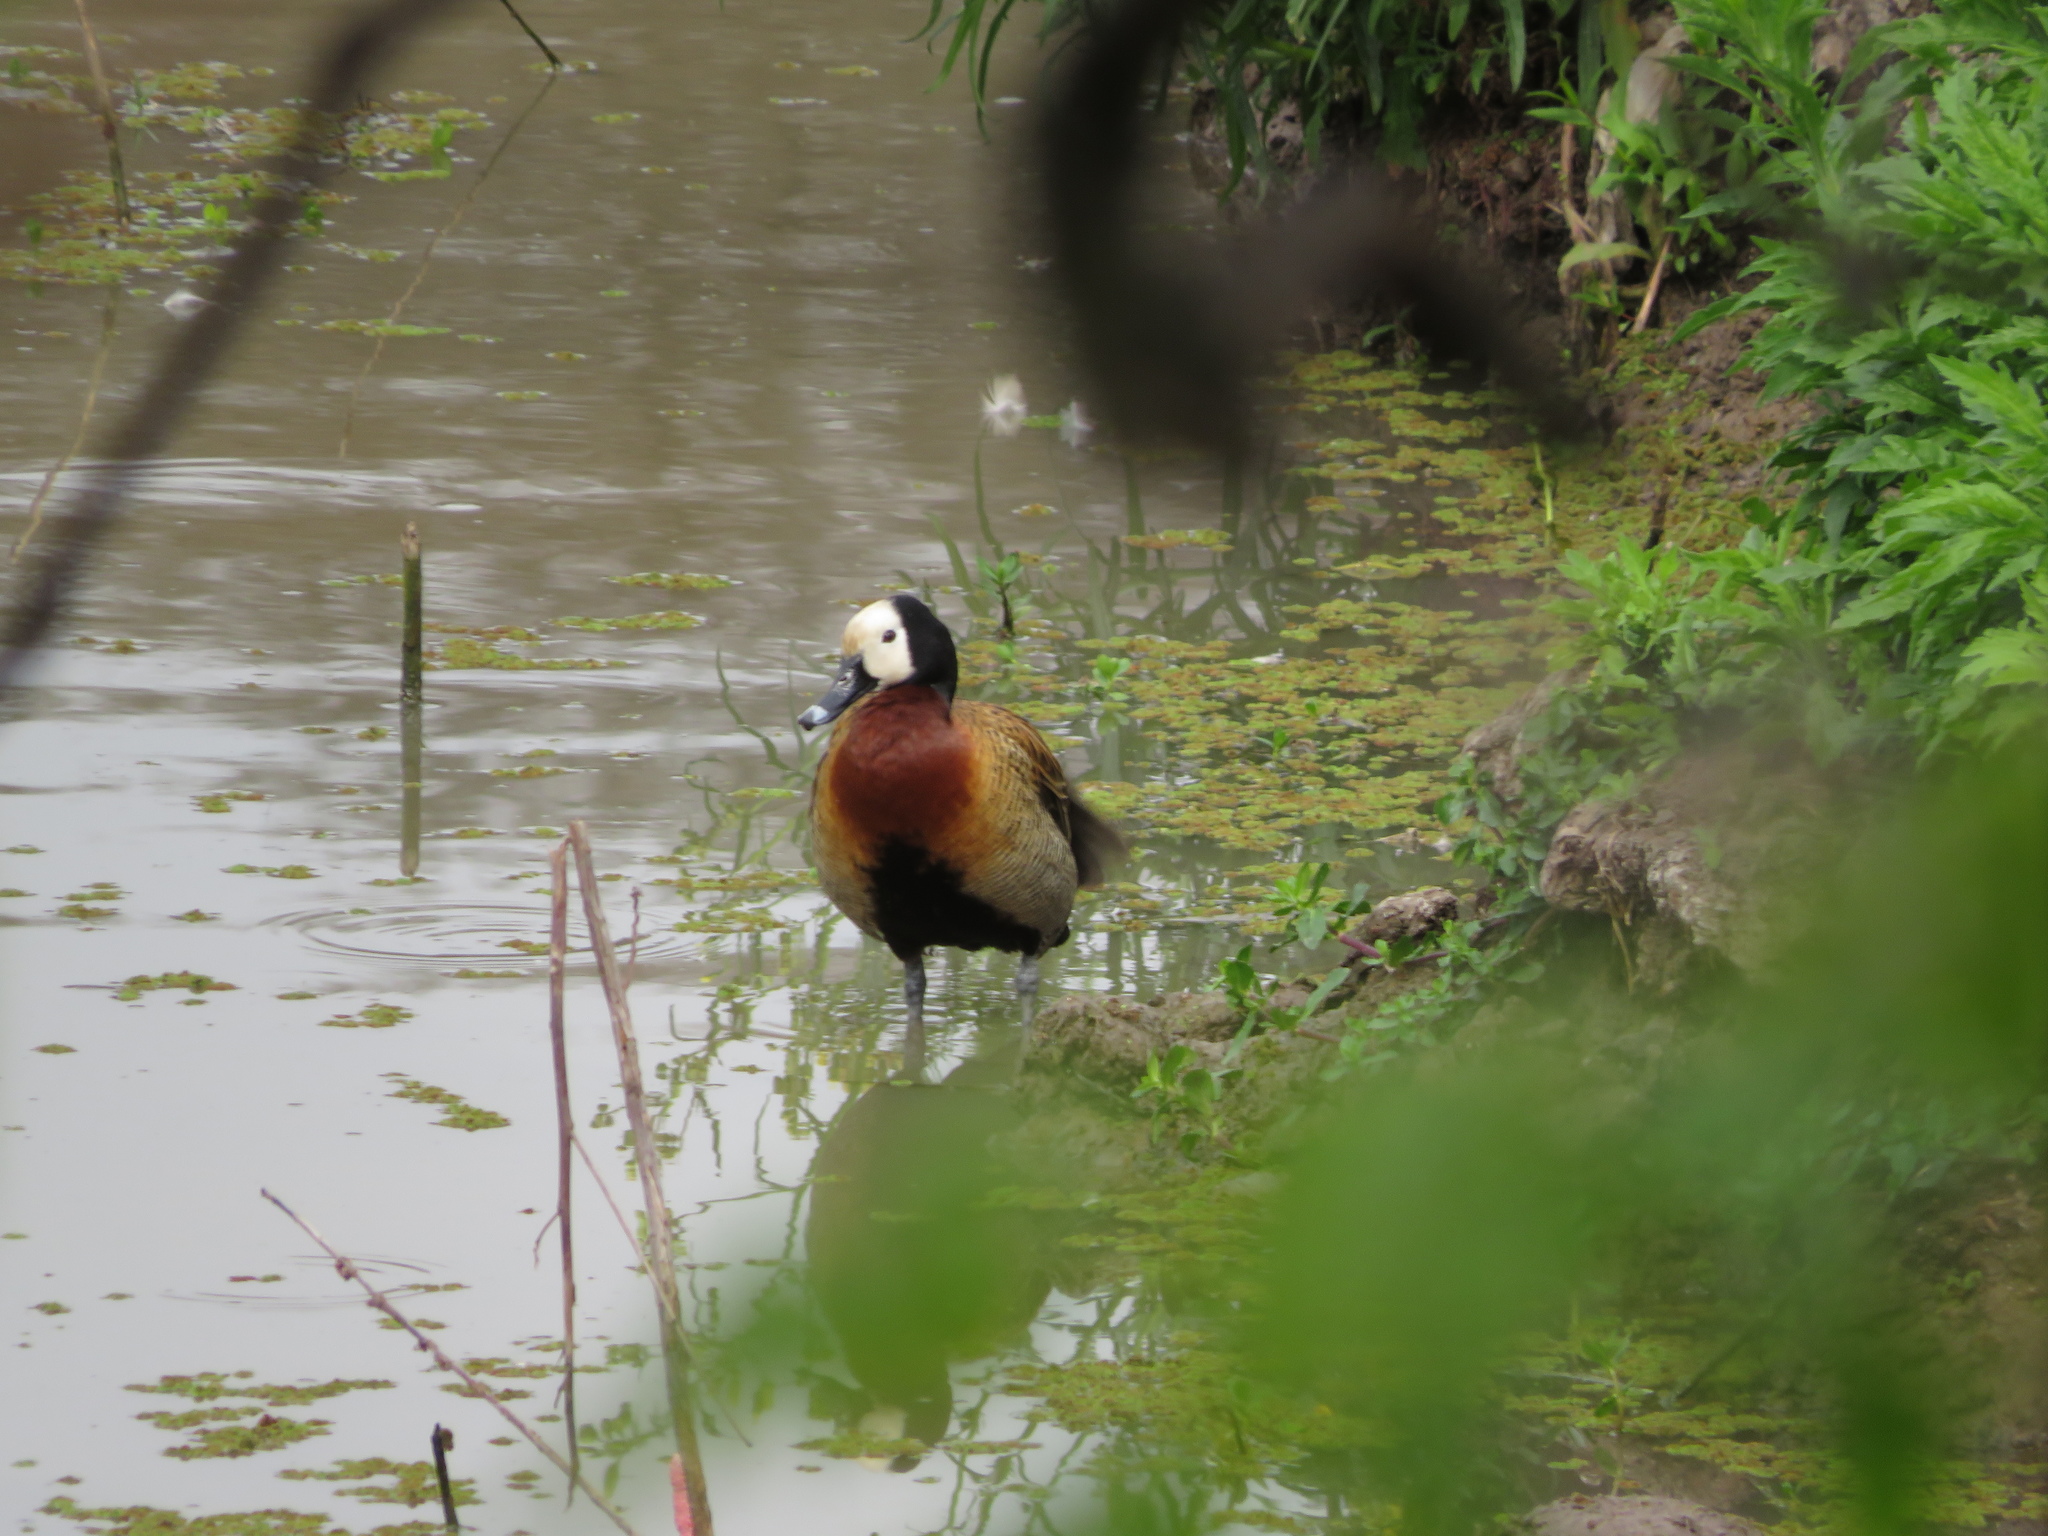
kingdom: Animalia
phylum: Chordata
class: Aves
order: Anseriformes
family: Anatidae
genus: Dendrocygna
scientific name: Dendrocygna viduata
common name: White-faced whistling duck
